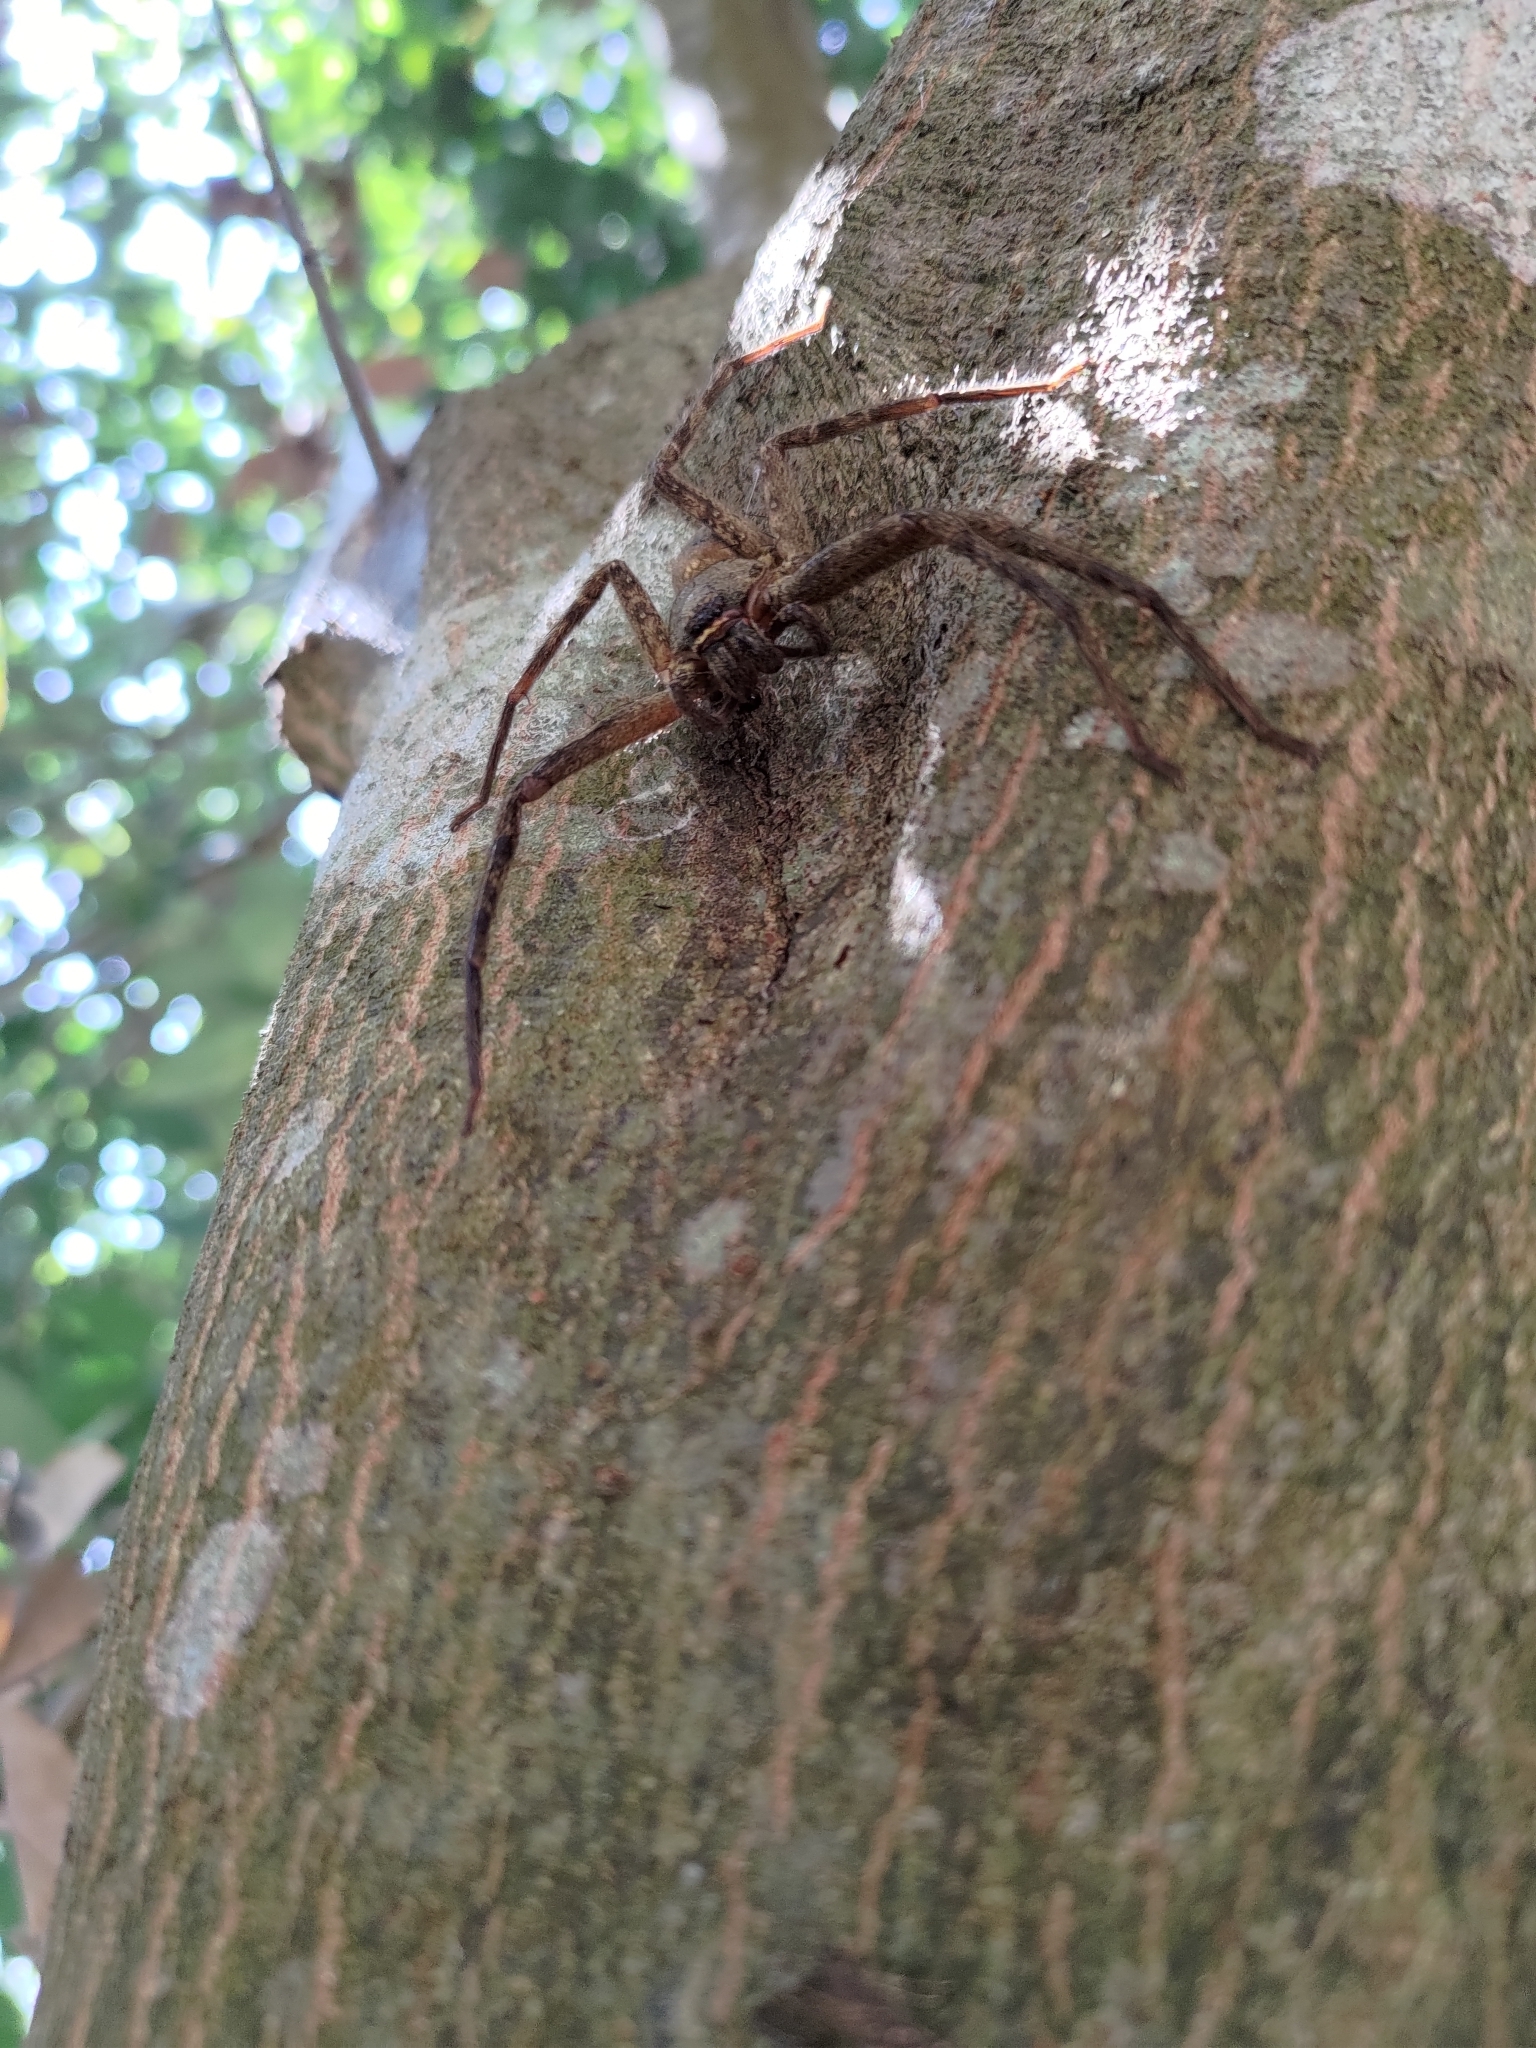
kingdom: Animalia
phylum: Arthropoda
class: Arachnida
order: Araneae
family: Sparassidae
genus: Heteropoda
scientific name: Heteropoda venatoria
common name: Huntsman spider
